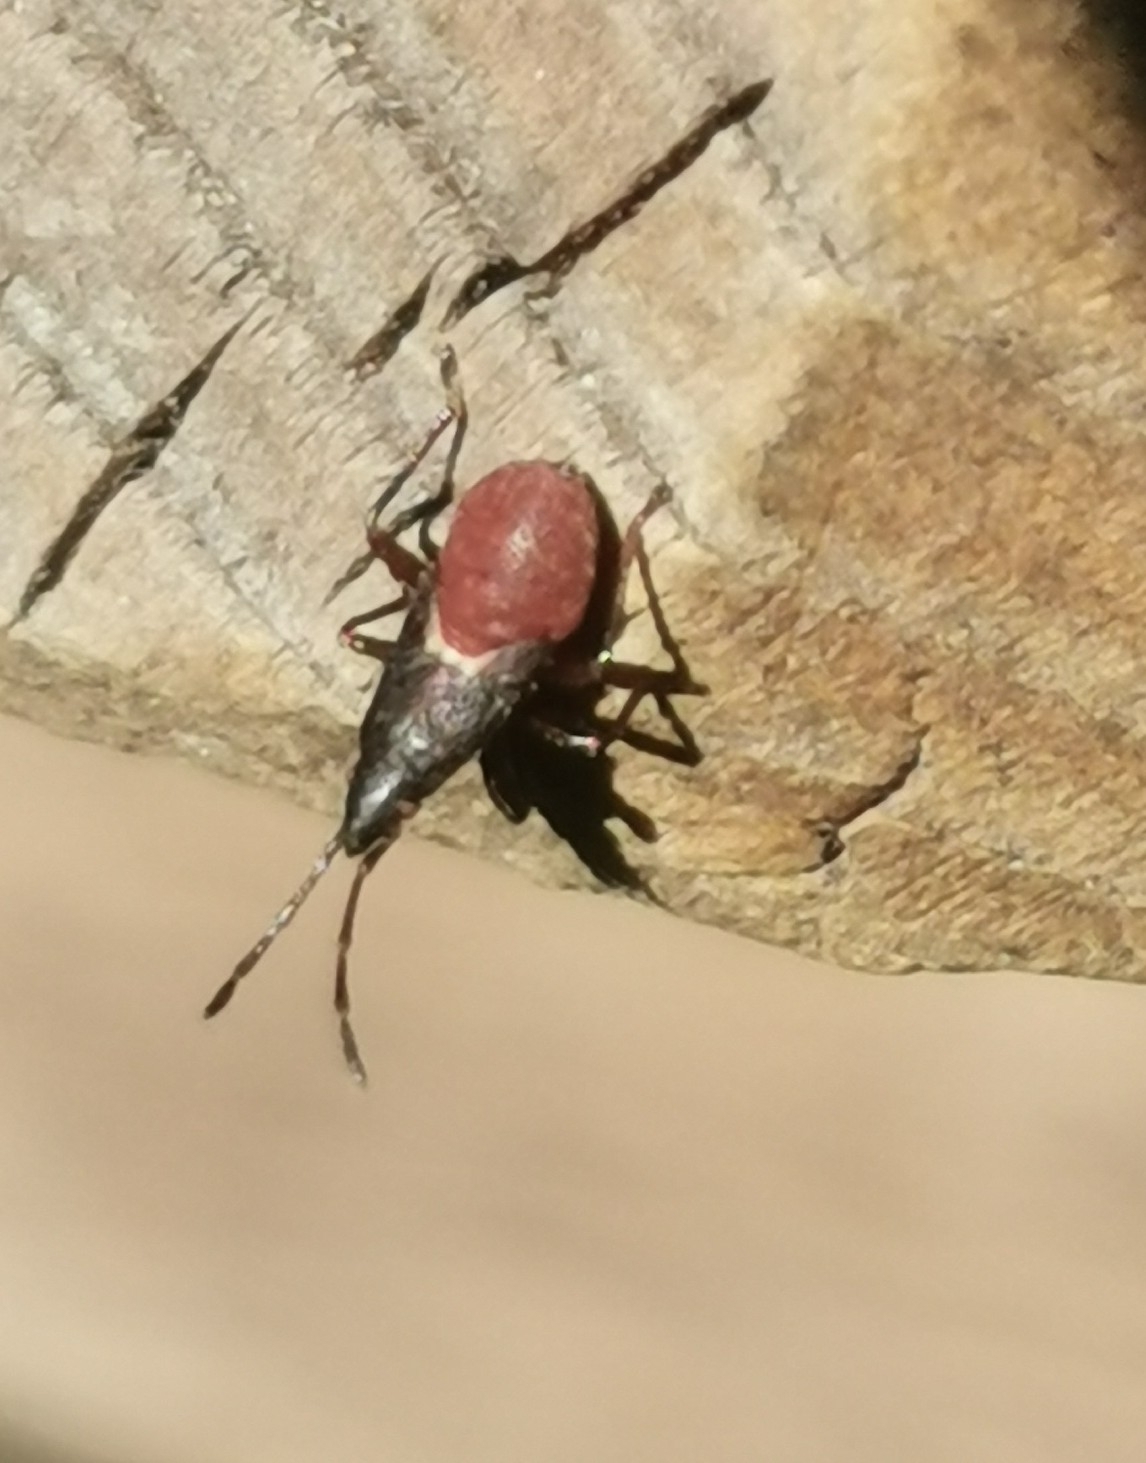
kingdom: Animalia
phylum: Arthropoda
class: Insecta
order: Hemiptera
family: Oxycarenidae
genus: Oxycarenus
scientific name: Oxycarenus lavaterae
